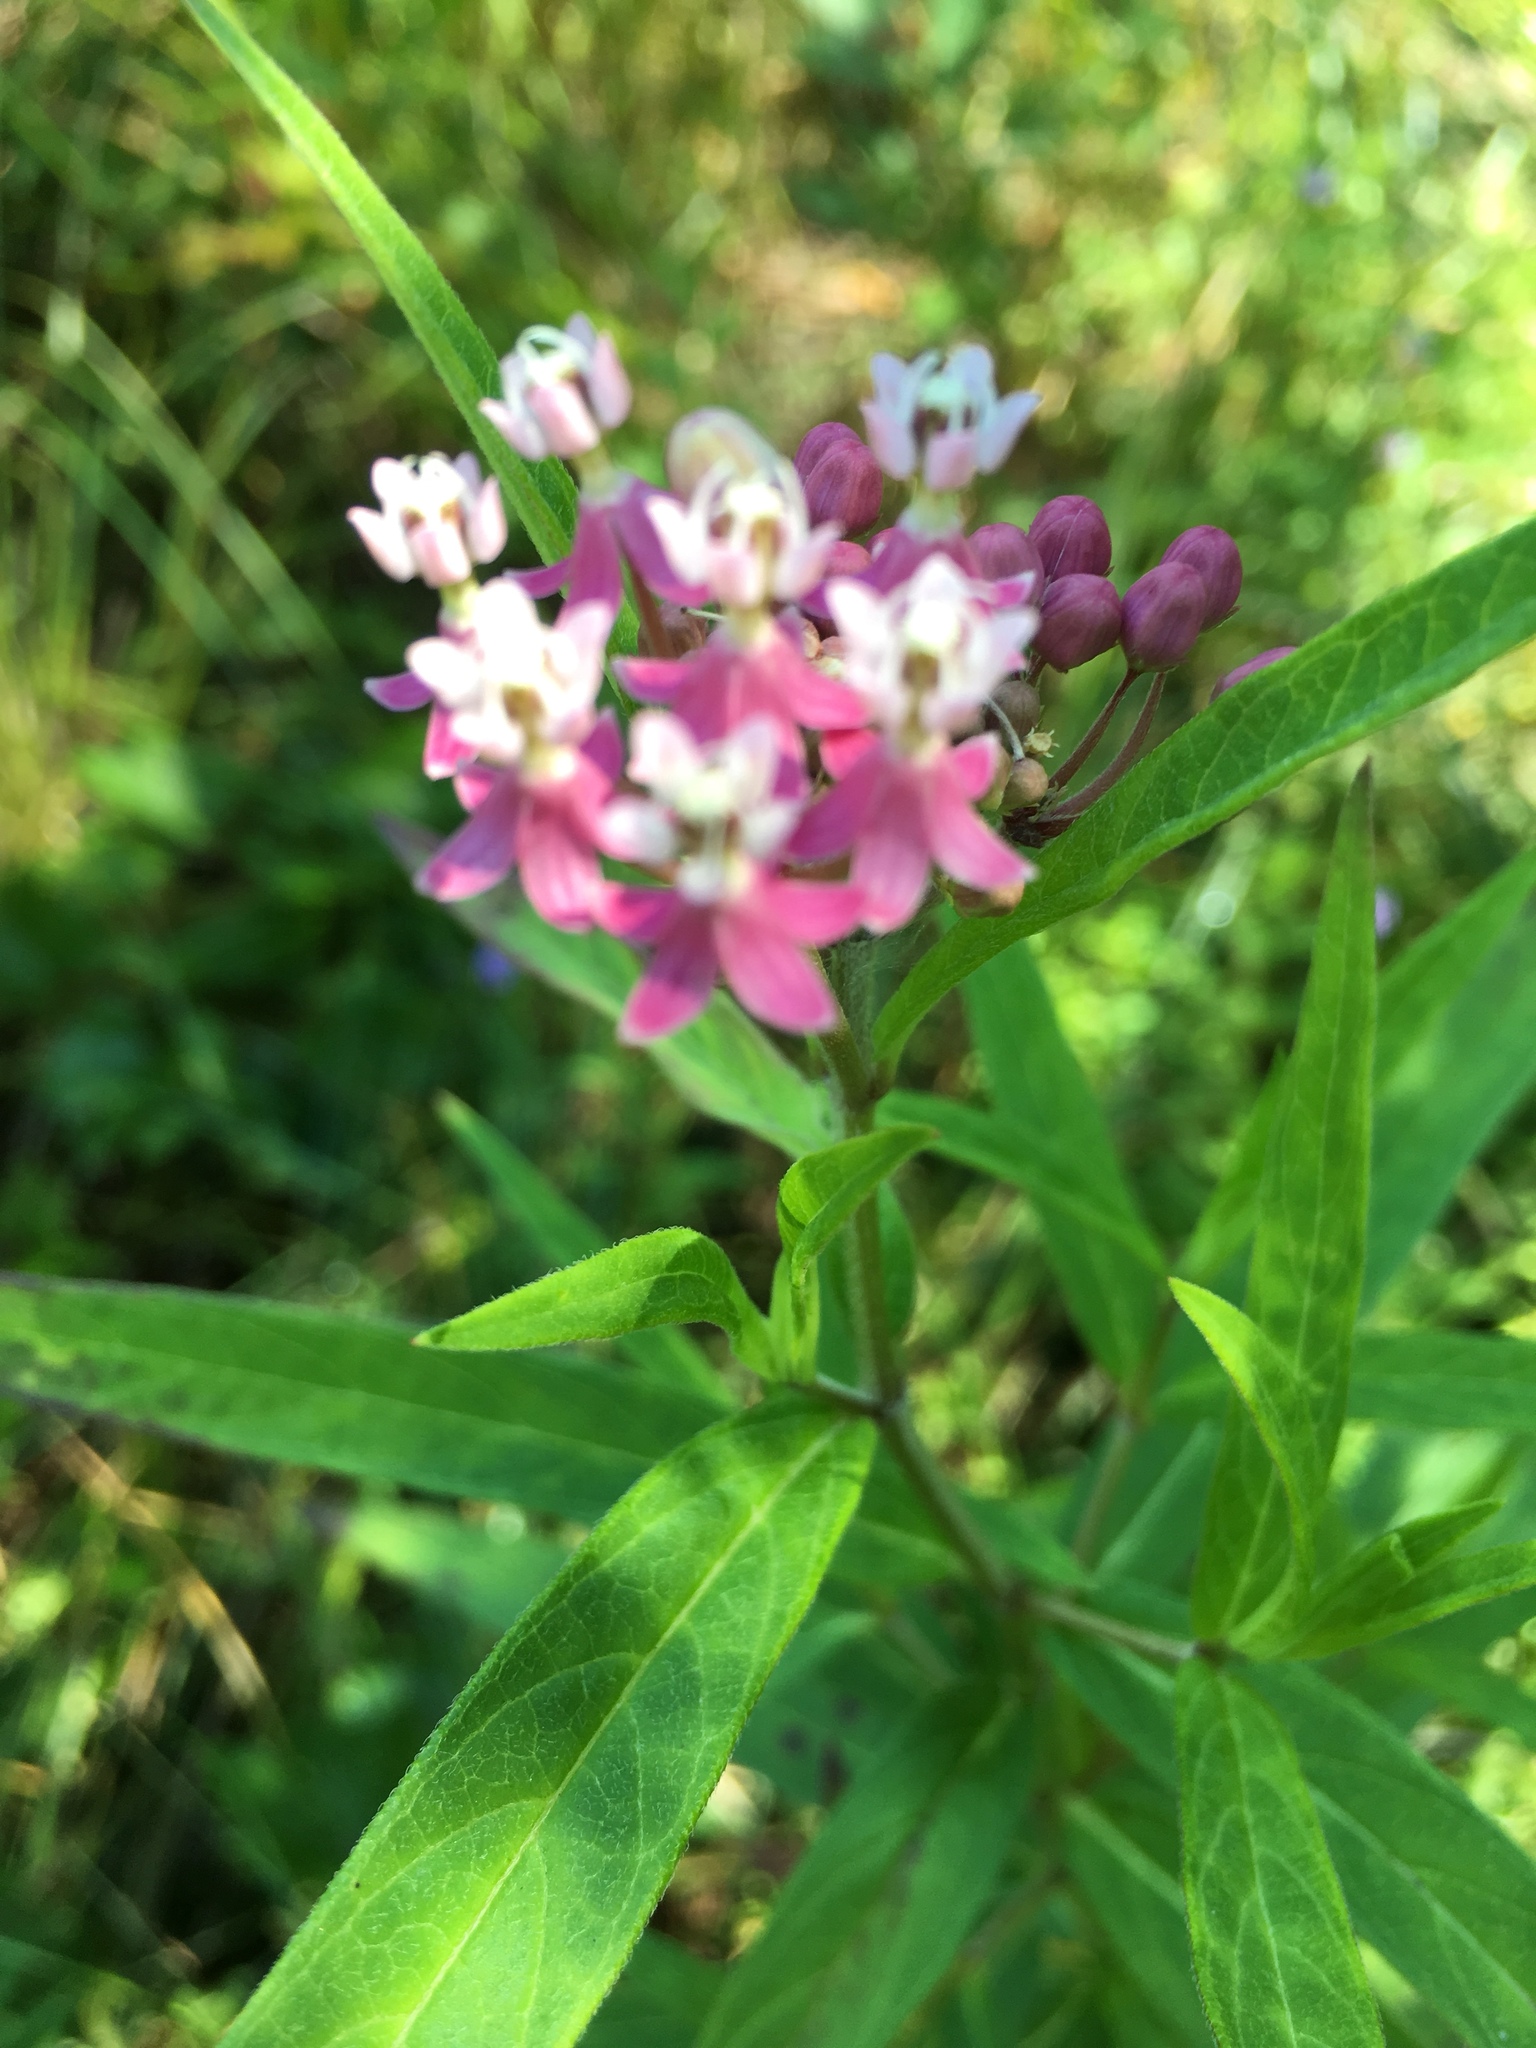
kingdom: Plantae
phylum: Tracheophyta
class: Magnoliopsida
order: Gentianales
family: Apocynaceae
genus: Asclepias
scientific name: Asclepias incarnata
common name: Swamp milkweed
